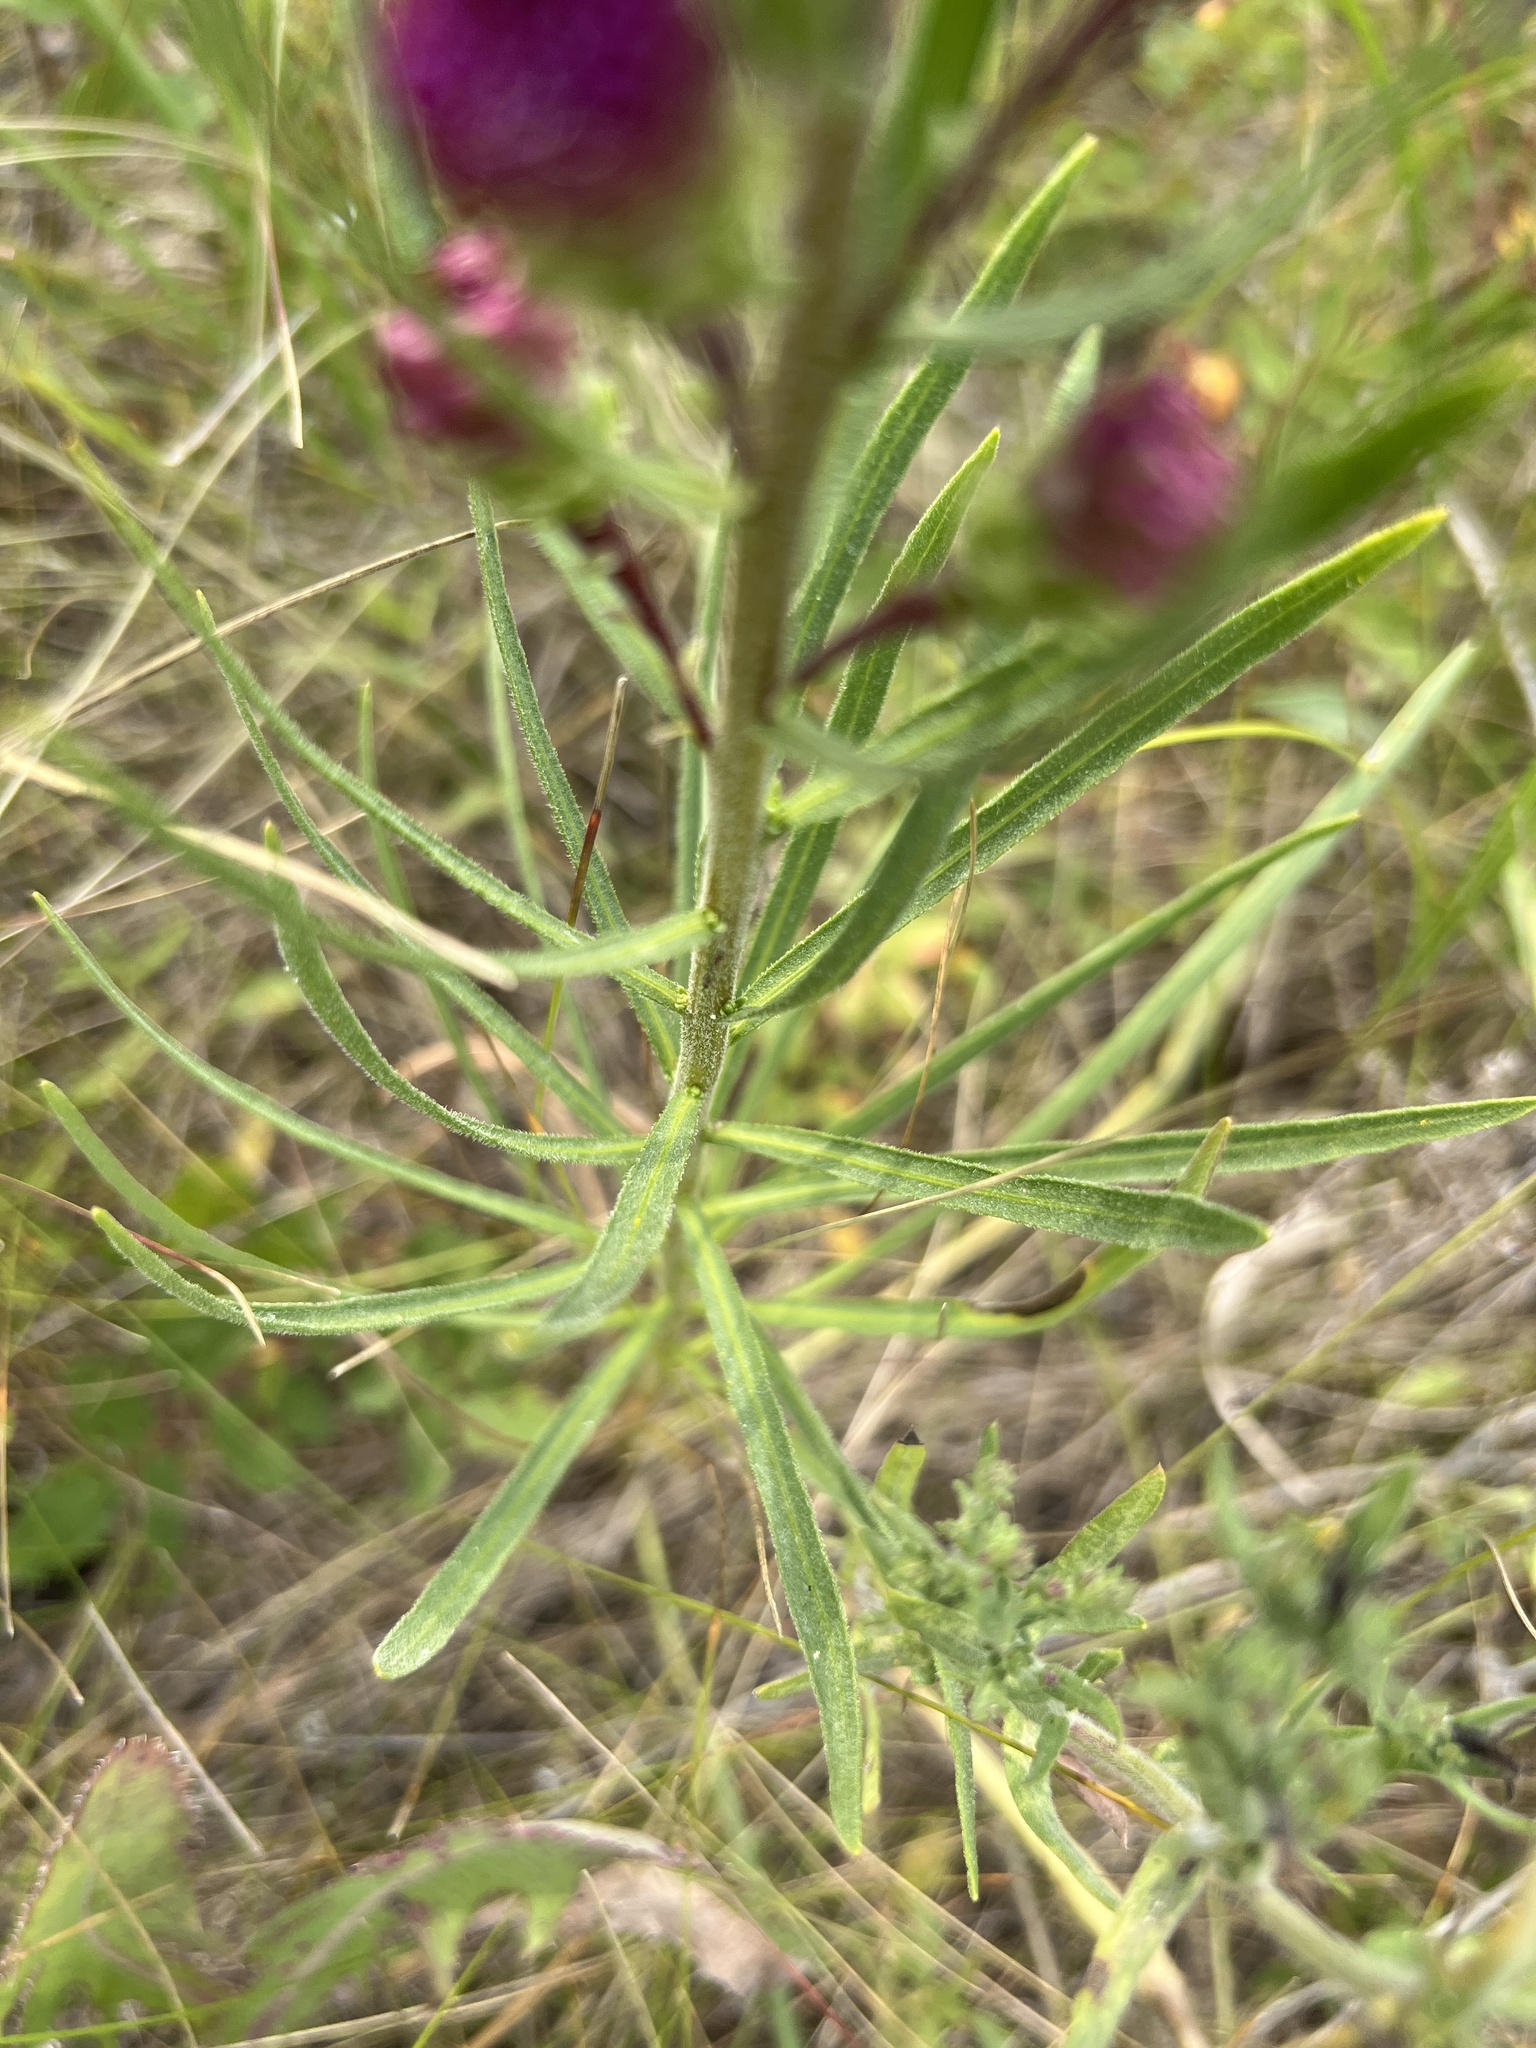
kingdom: Plantae
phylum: Tracheophyta
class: Magnoliopsida
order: Asterales
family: Asteraceae
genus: Liatris
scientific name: Liatris ligulistylis
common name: Northern plains gayfeather
